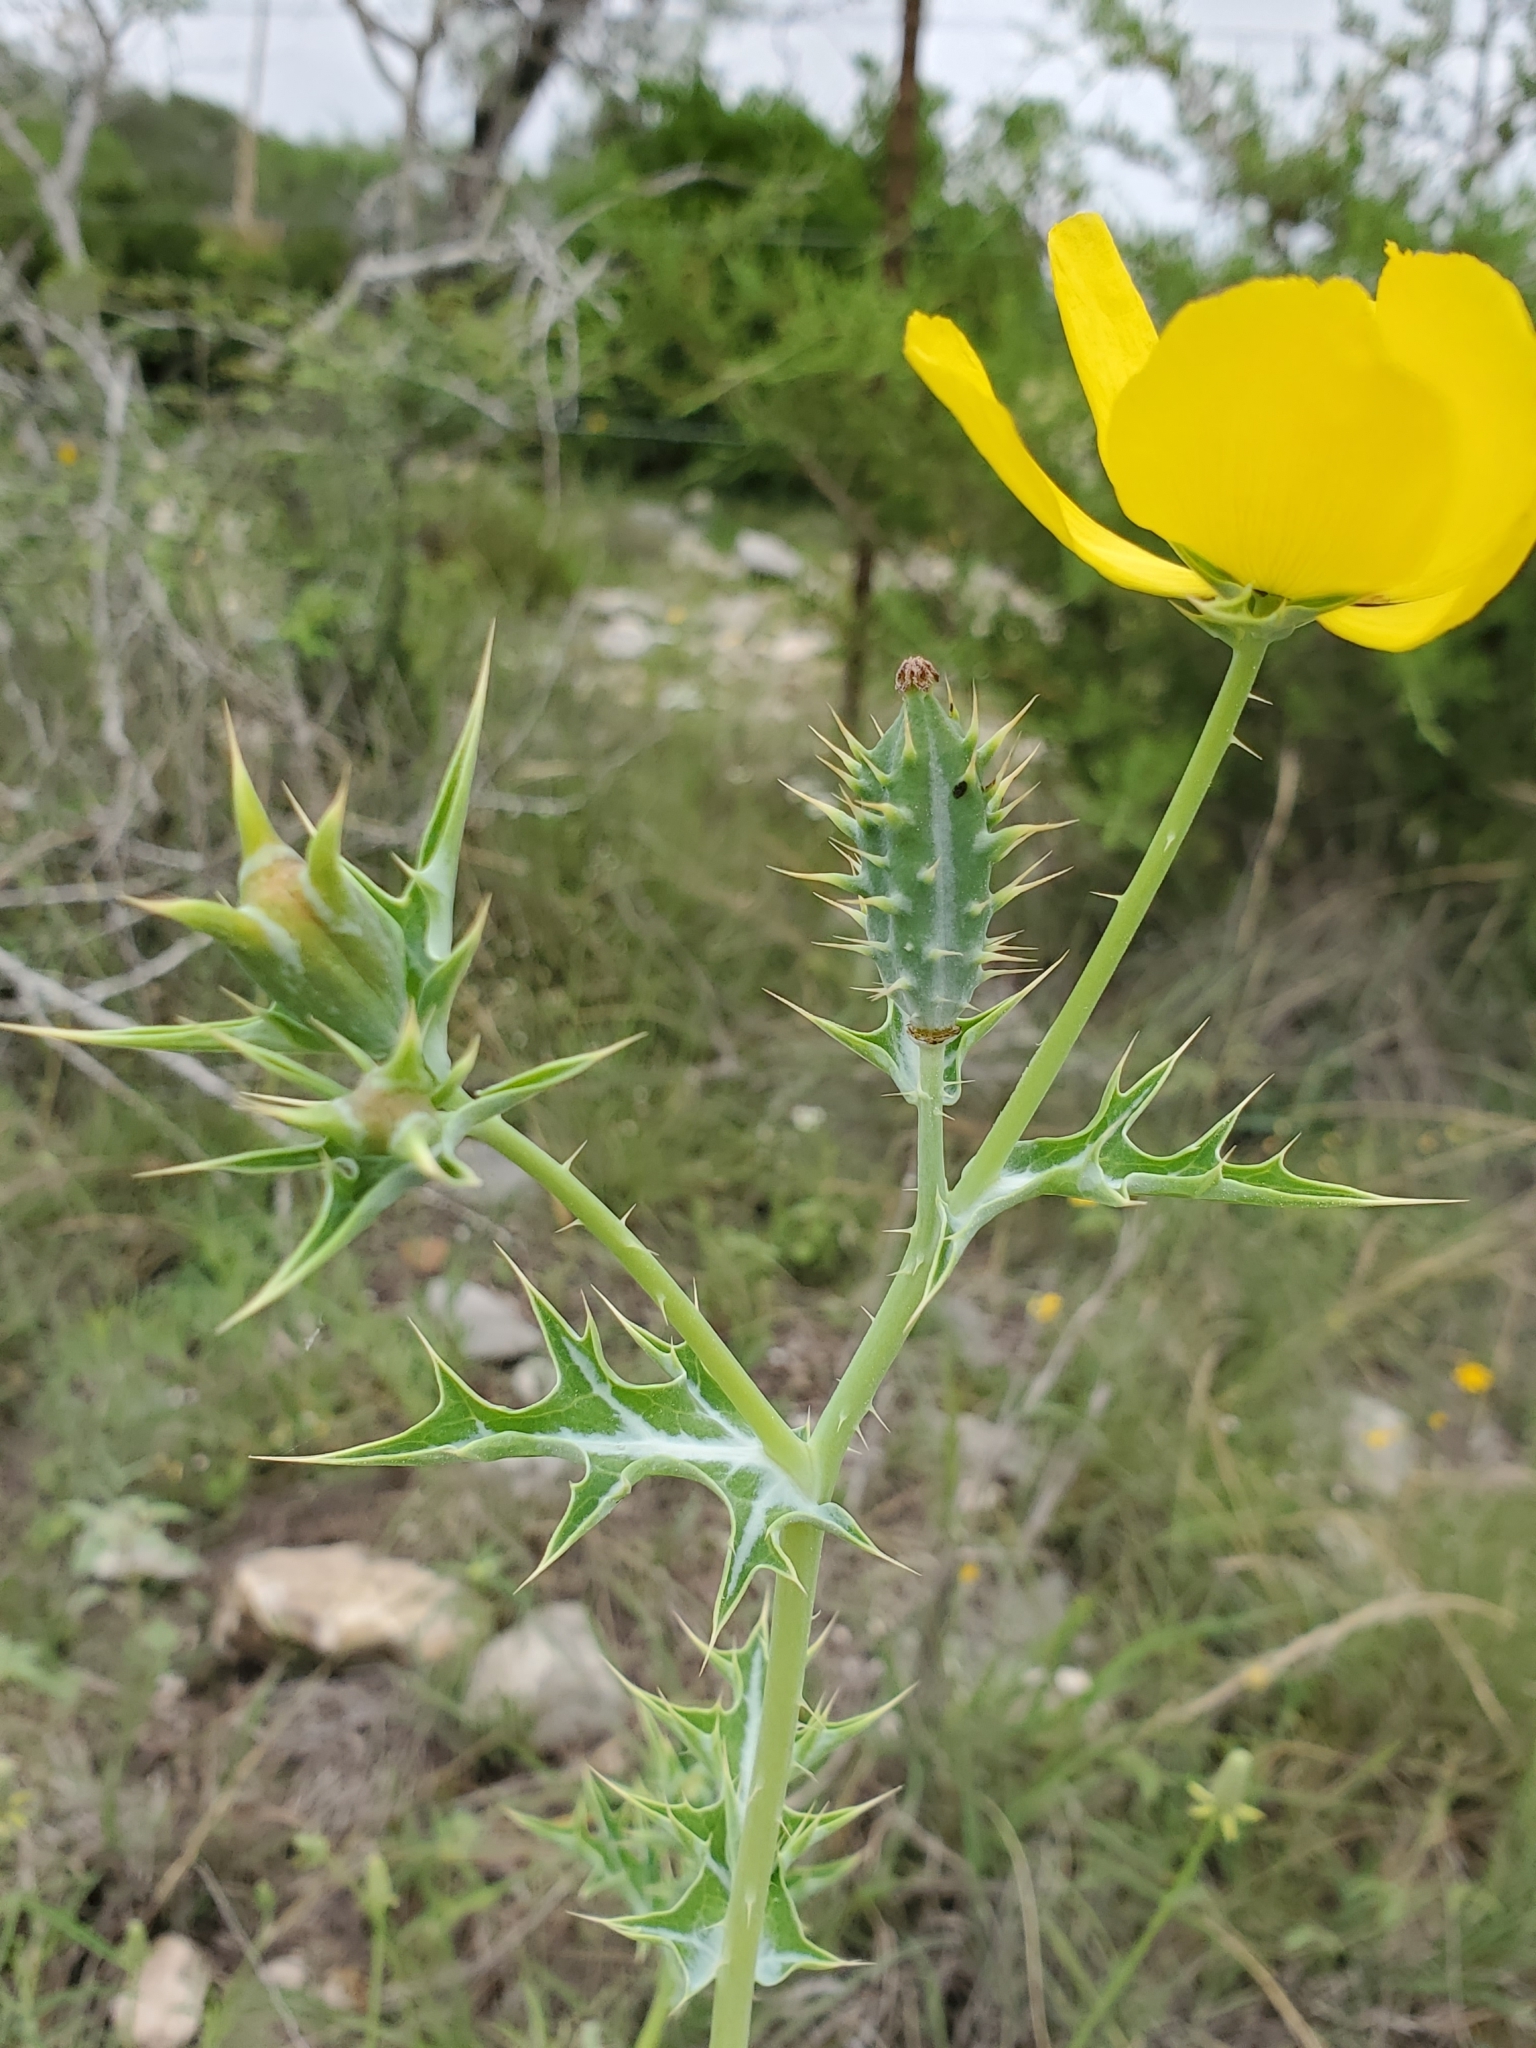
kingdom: Plantae
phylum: Tracheophyta
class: Magnoliopsida
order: Ranunculales
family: Papaveraceae
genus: Argemone
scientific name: Argemone mexicana
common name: Mexican poppy
